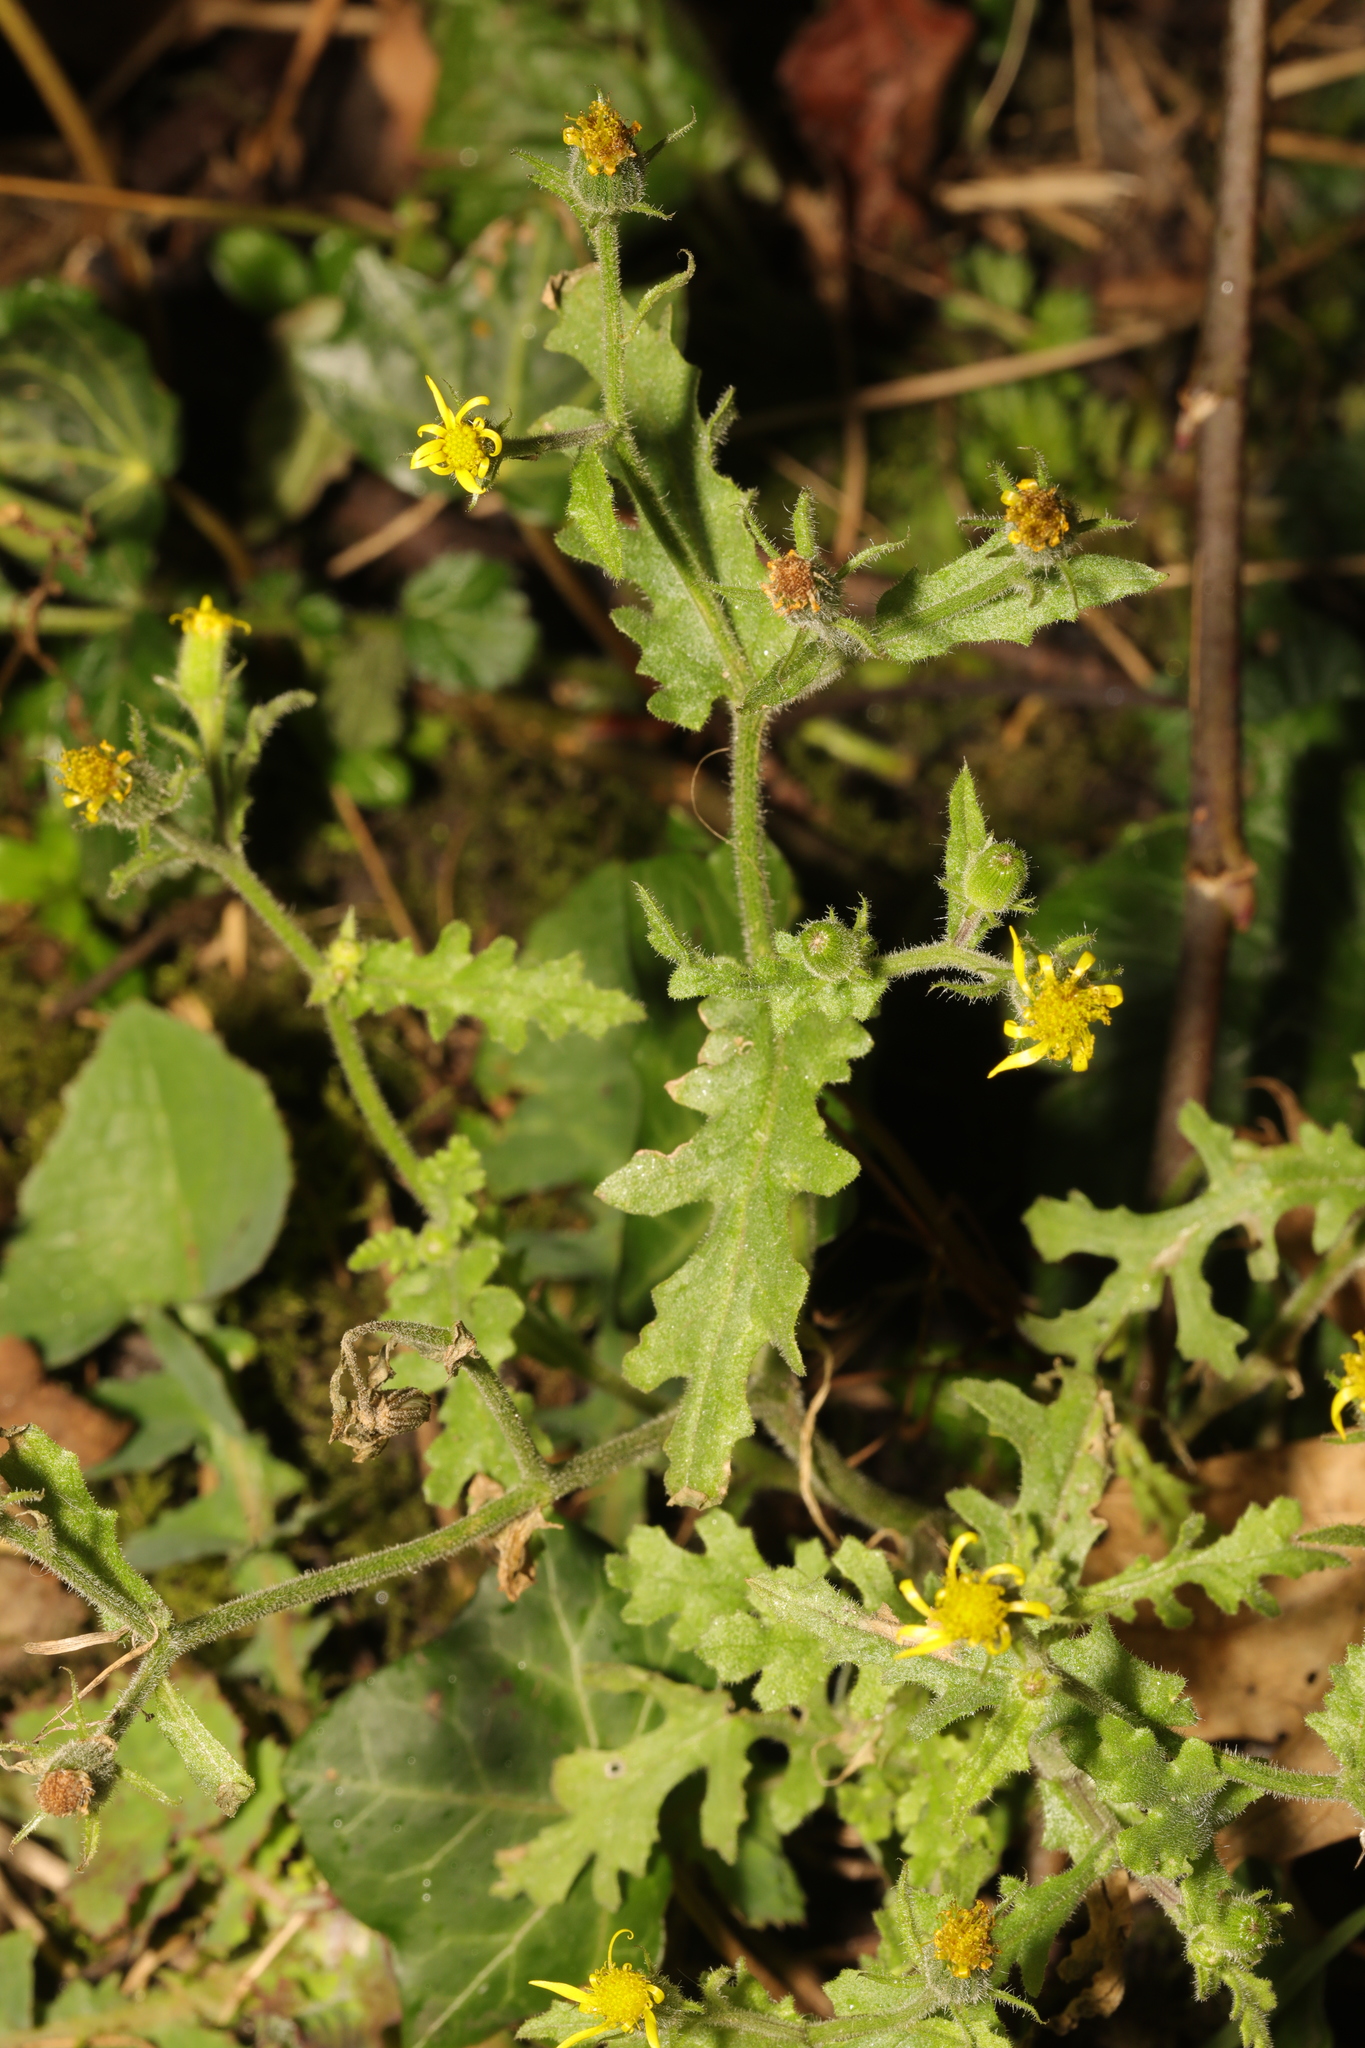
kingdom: Plantae
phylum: Tracheophyta
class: Magnoliopsida
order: Asterales
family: Asteraceae
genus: Senecio
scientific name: Senecio viscosus
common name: Sticky groundsel
